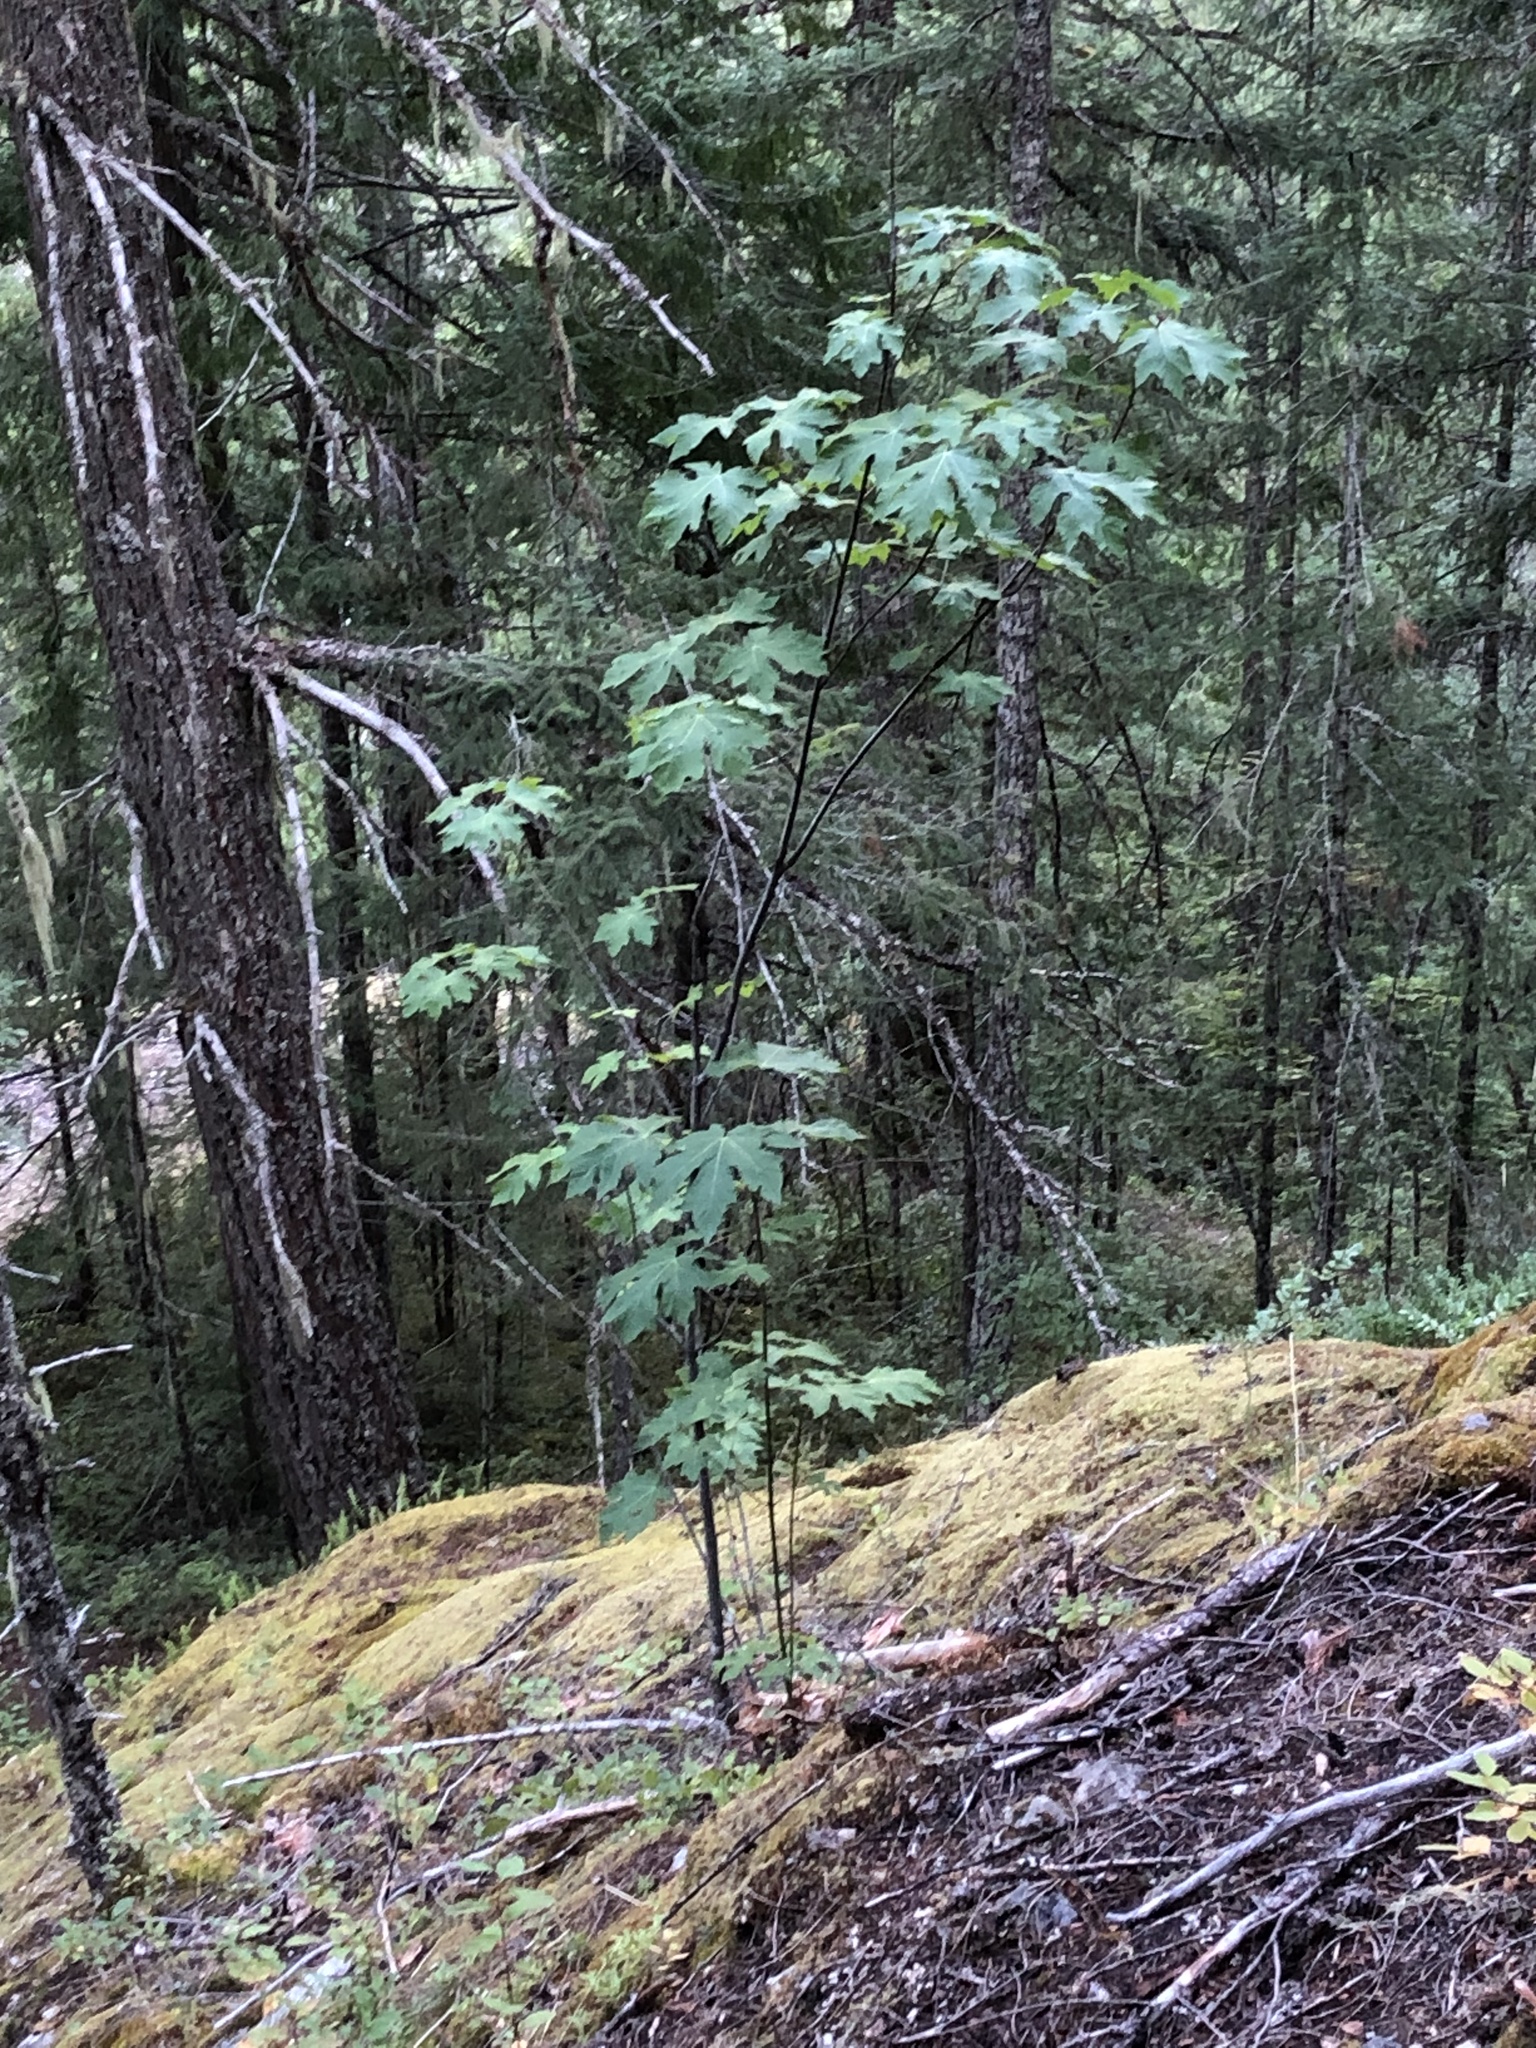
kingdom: Plantae
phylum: Tracheophyta
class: Magnoliopsida
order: Sapindales
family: Sapindaceae
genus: Acer
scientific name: Acer macrophyllum
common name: Oregon maple
